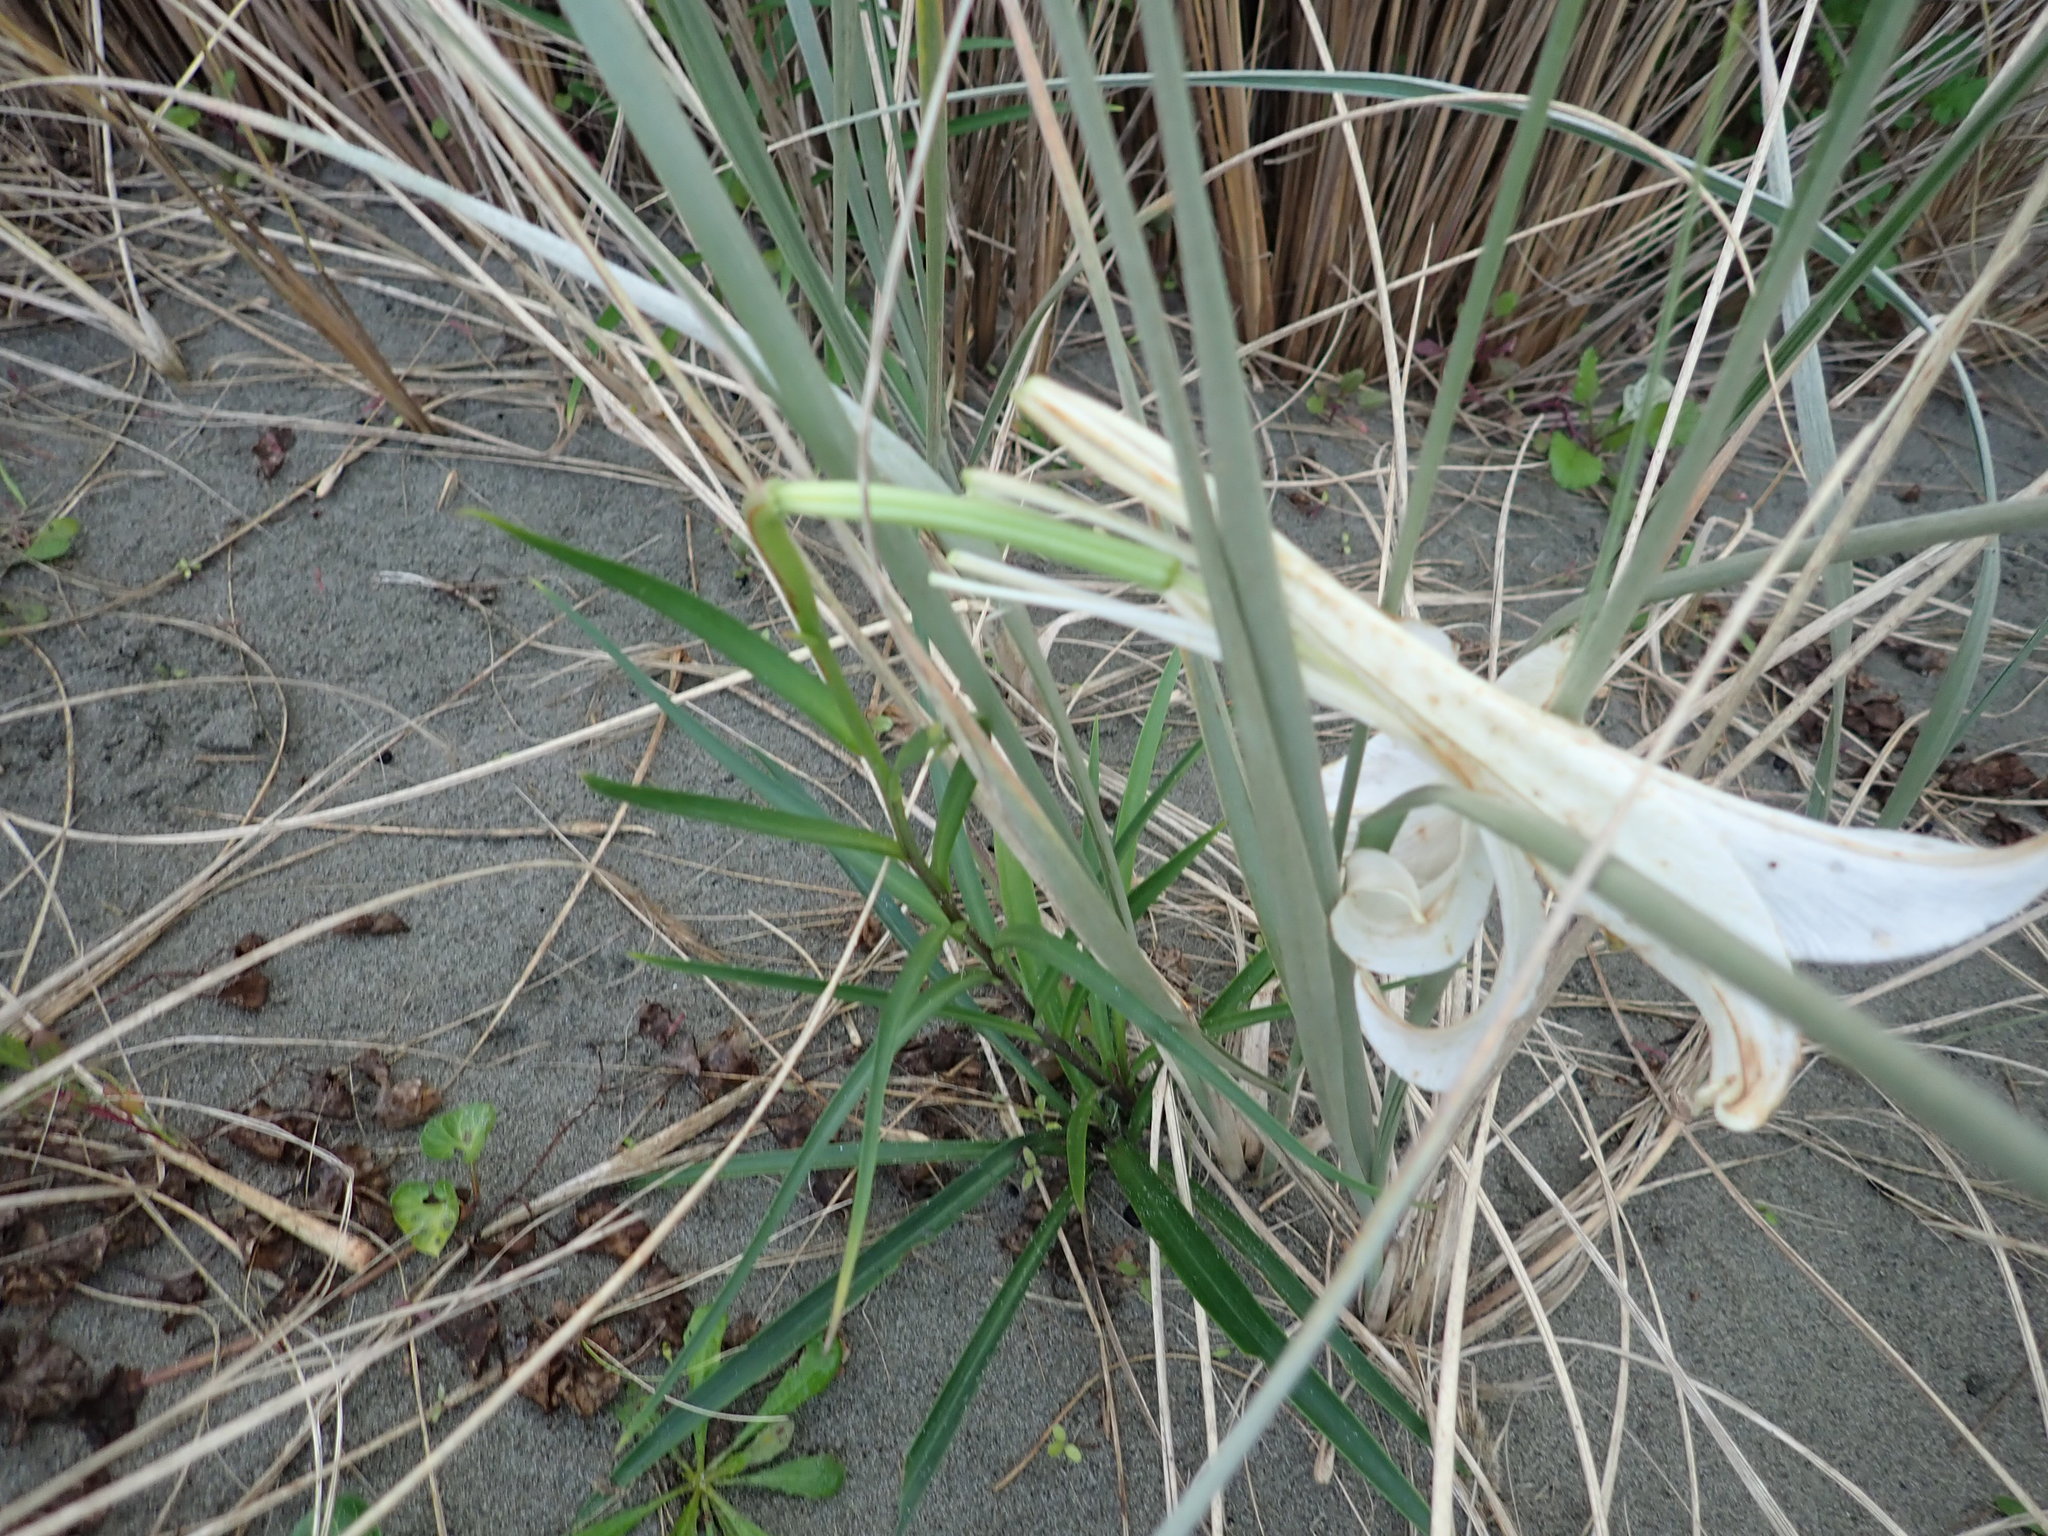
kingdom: Plantae
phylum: Tracheophyta
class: Liliopsida
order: Liliales
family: Liliaceae
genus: Lilium
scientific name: Lilium formosanum
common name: Formosa lily
